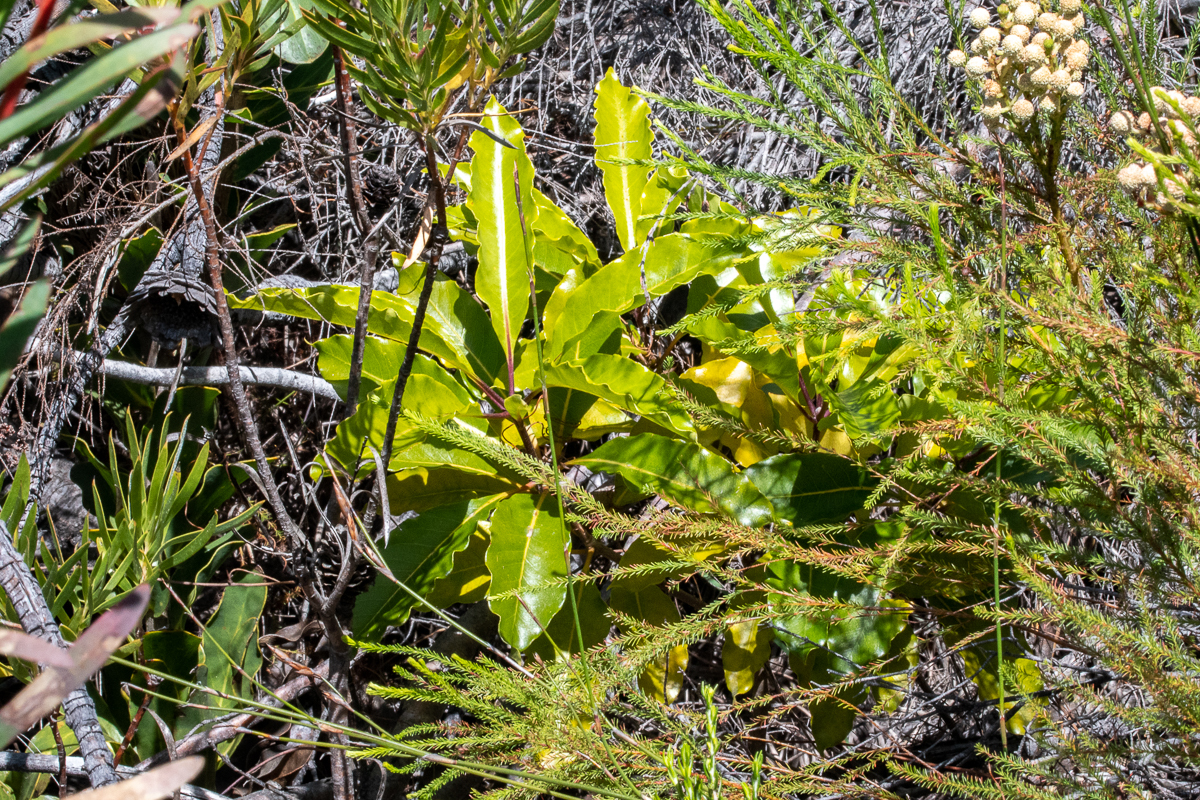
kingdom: Plantae
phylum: Tracheophyta
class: Magnoliopsida
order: Apiales
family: Pittosporaceae
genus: Pittosporum
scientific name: Pittosporum undulatum
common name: Australian cheesewood
